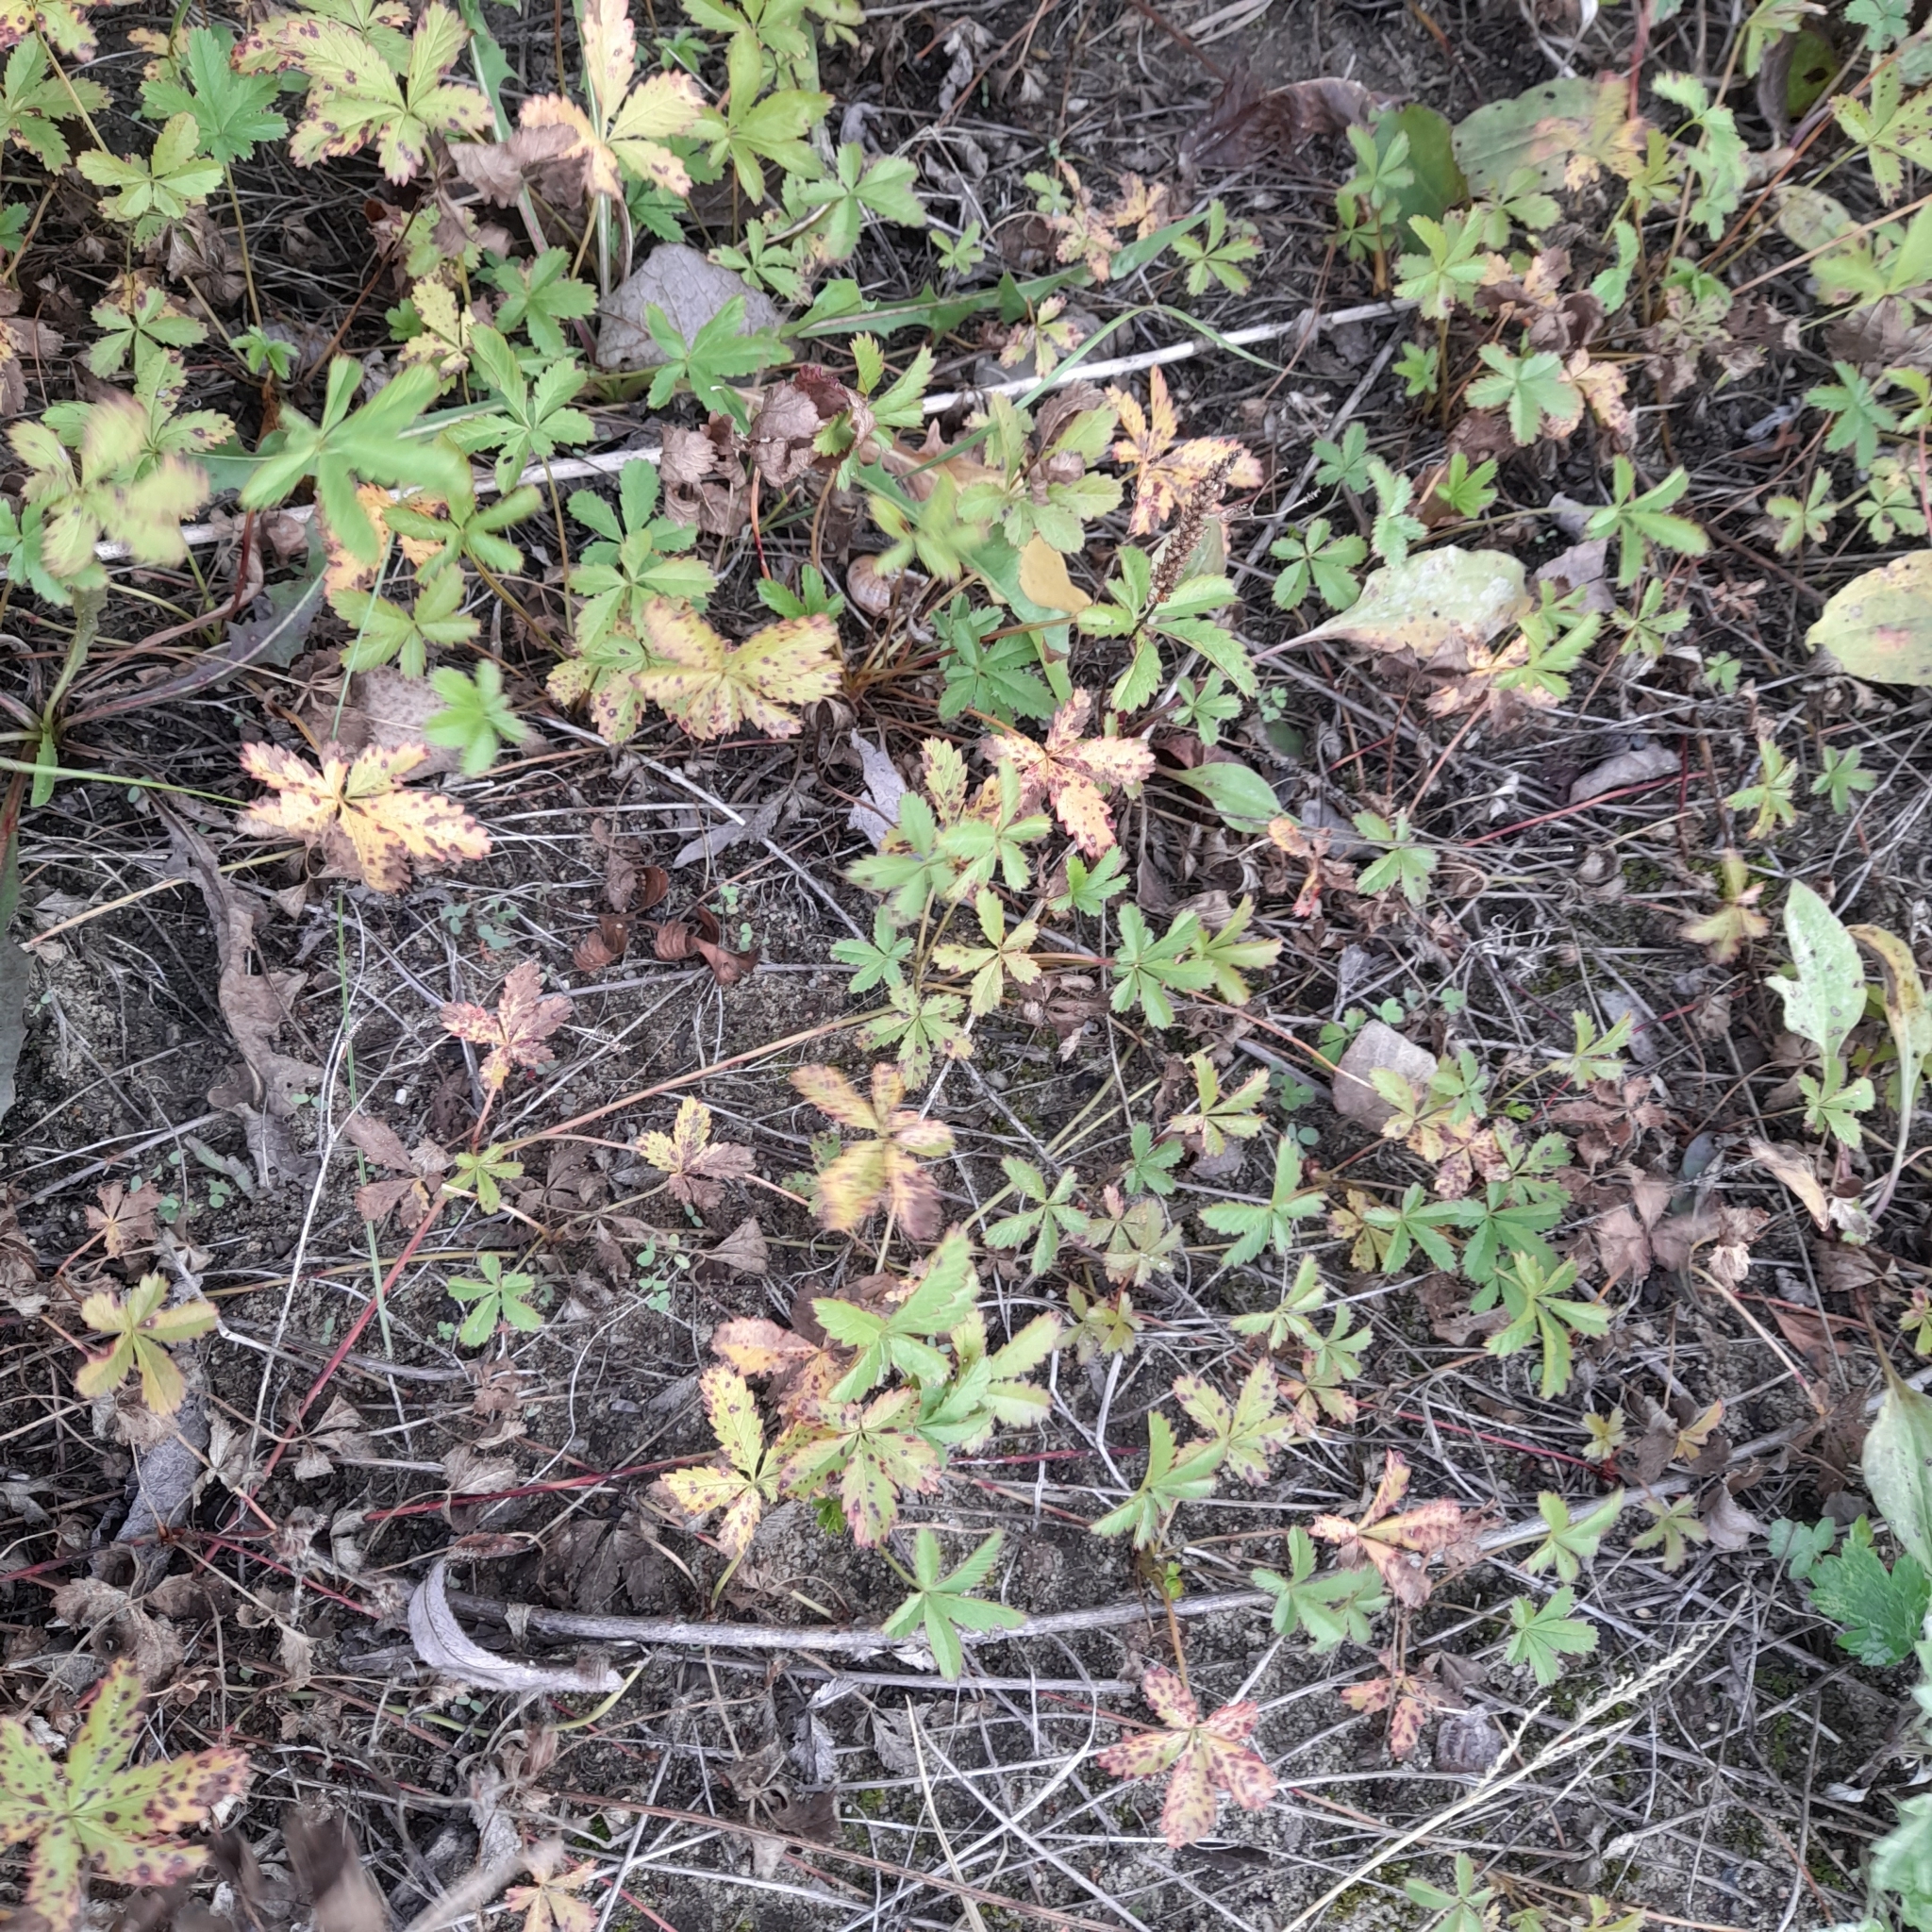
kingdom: Plantae
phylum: Tracheophyta
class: Magnoliopsida
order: Rosales
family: Rosaceae
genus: Potentilla
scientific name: Potentilla reptans
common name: Creeping cinquefoil
